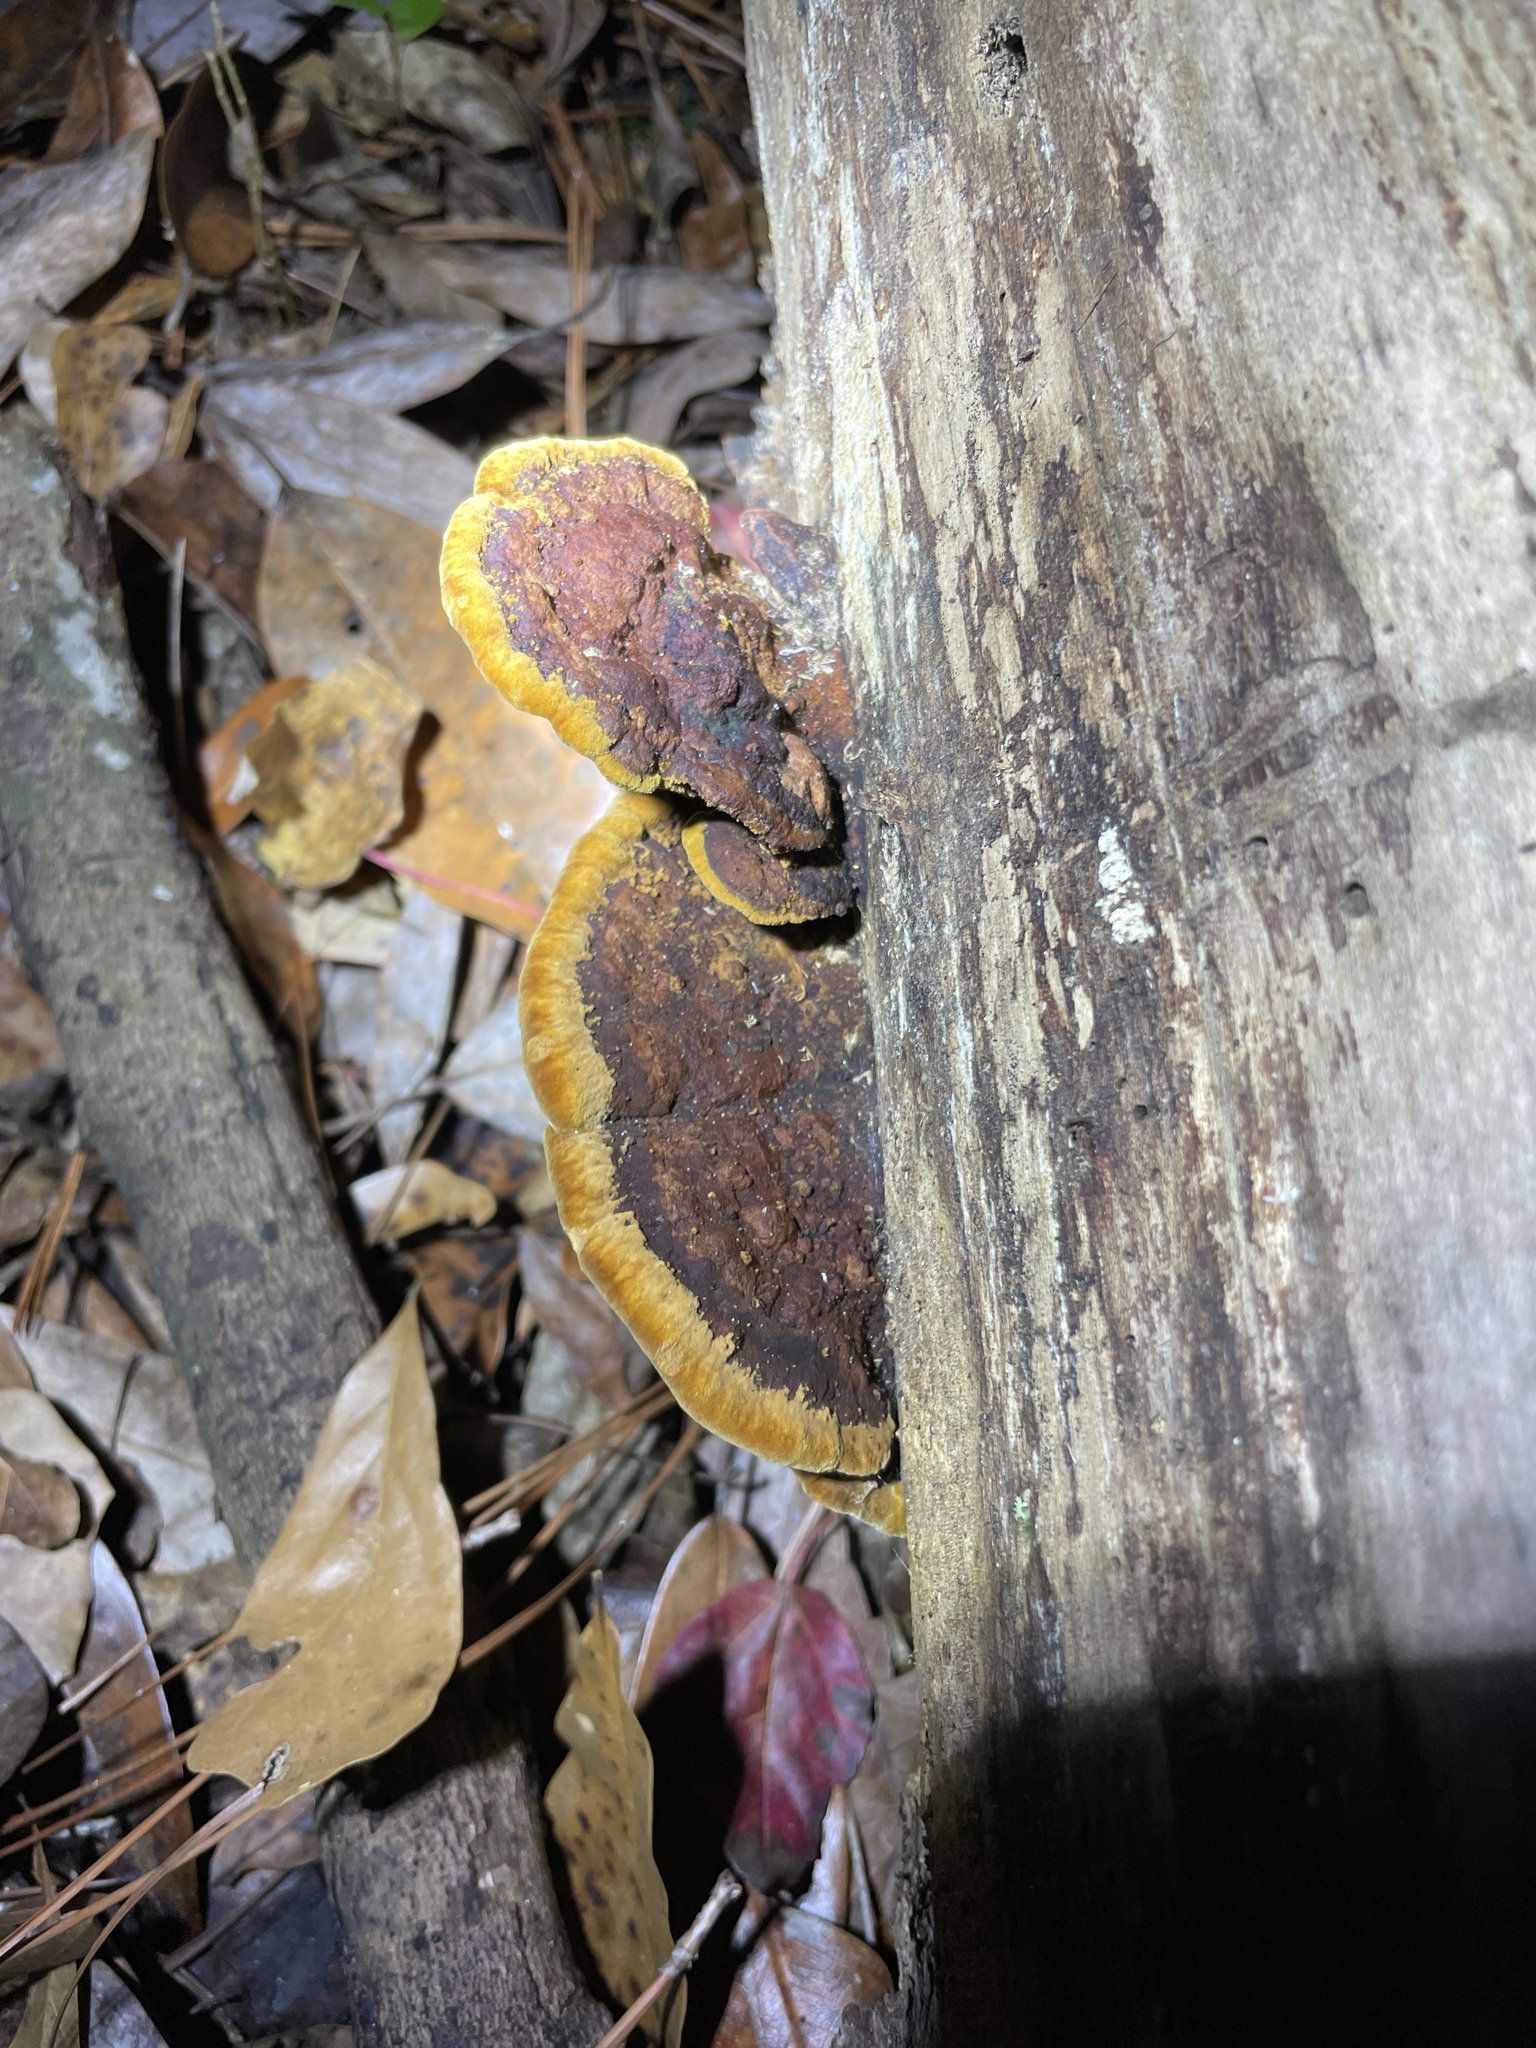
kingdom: Fungi
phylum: Basidiomycota
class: Agaricomycetes
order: Hymenochaetales
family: Hymenochaetaceae
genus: Phellinus
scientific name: Phellinus gilvus
